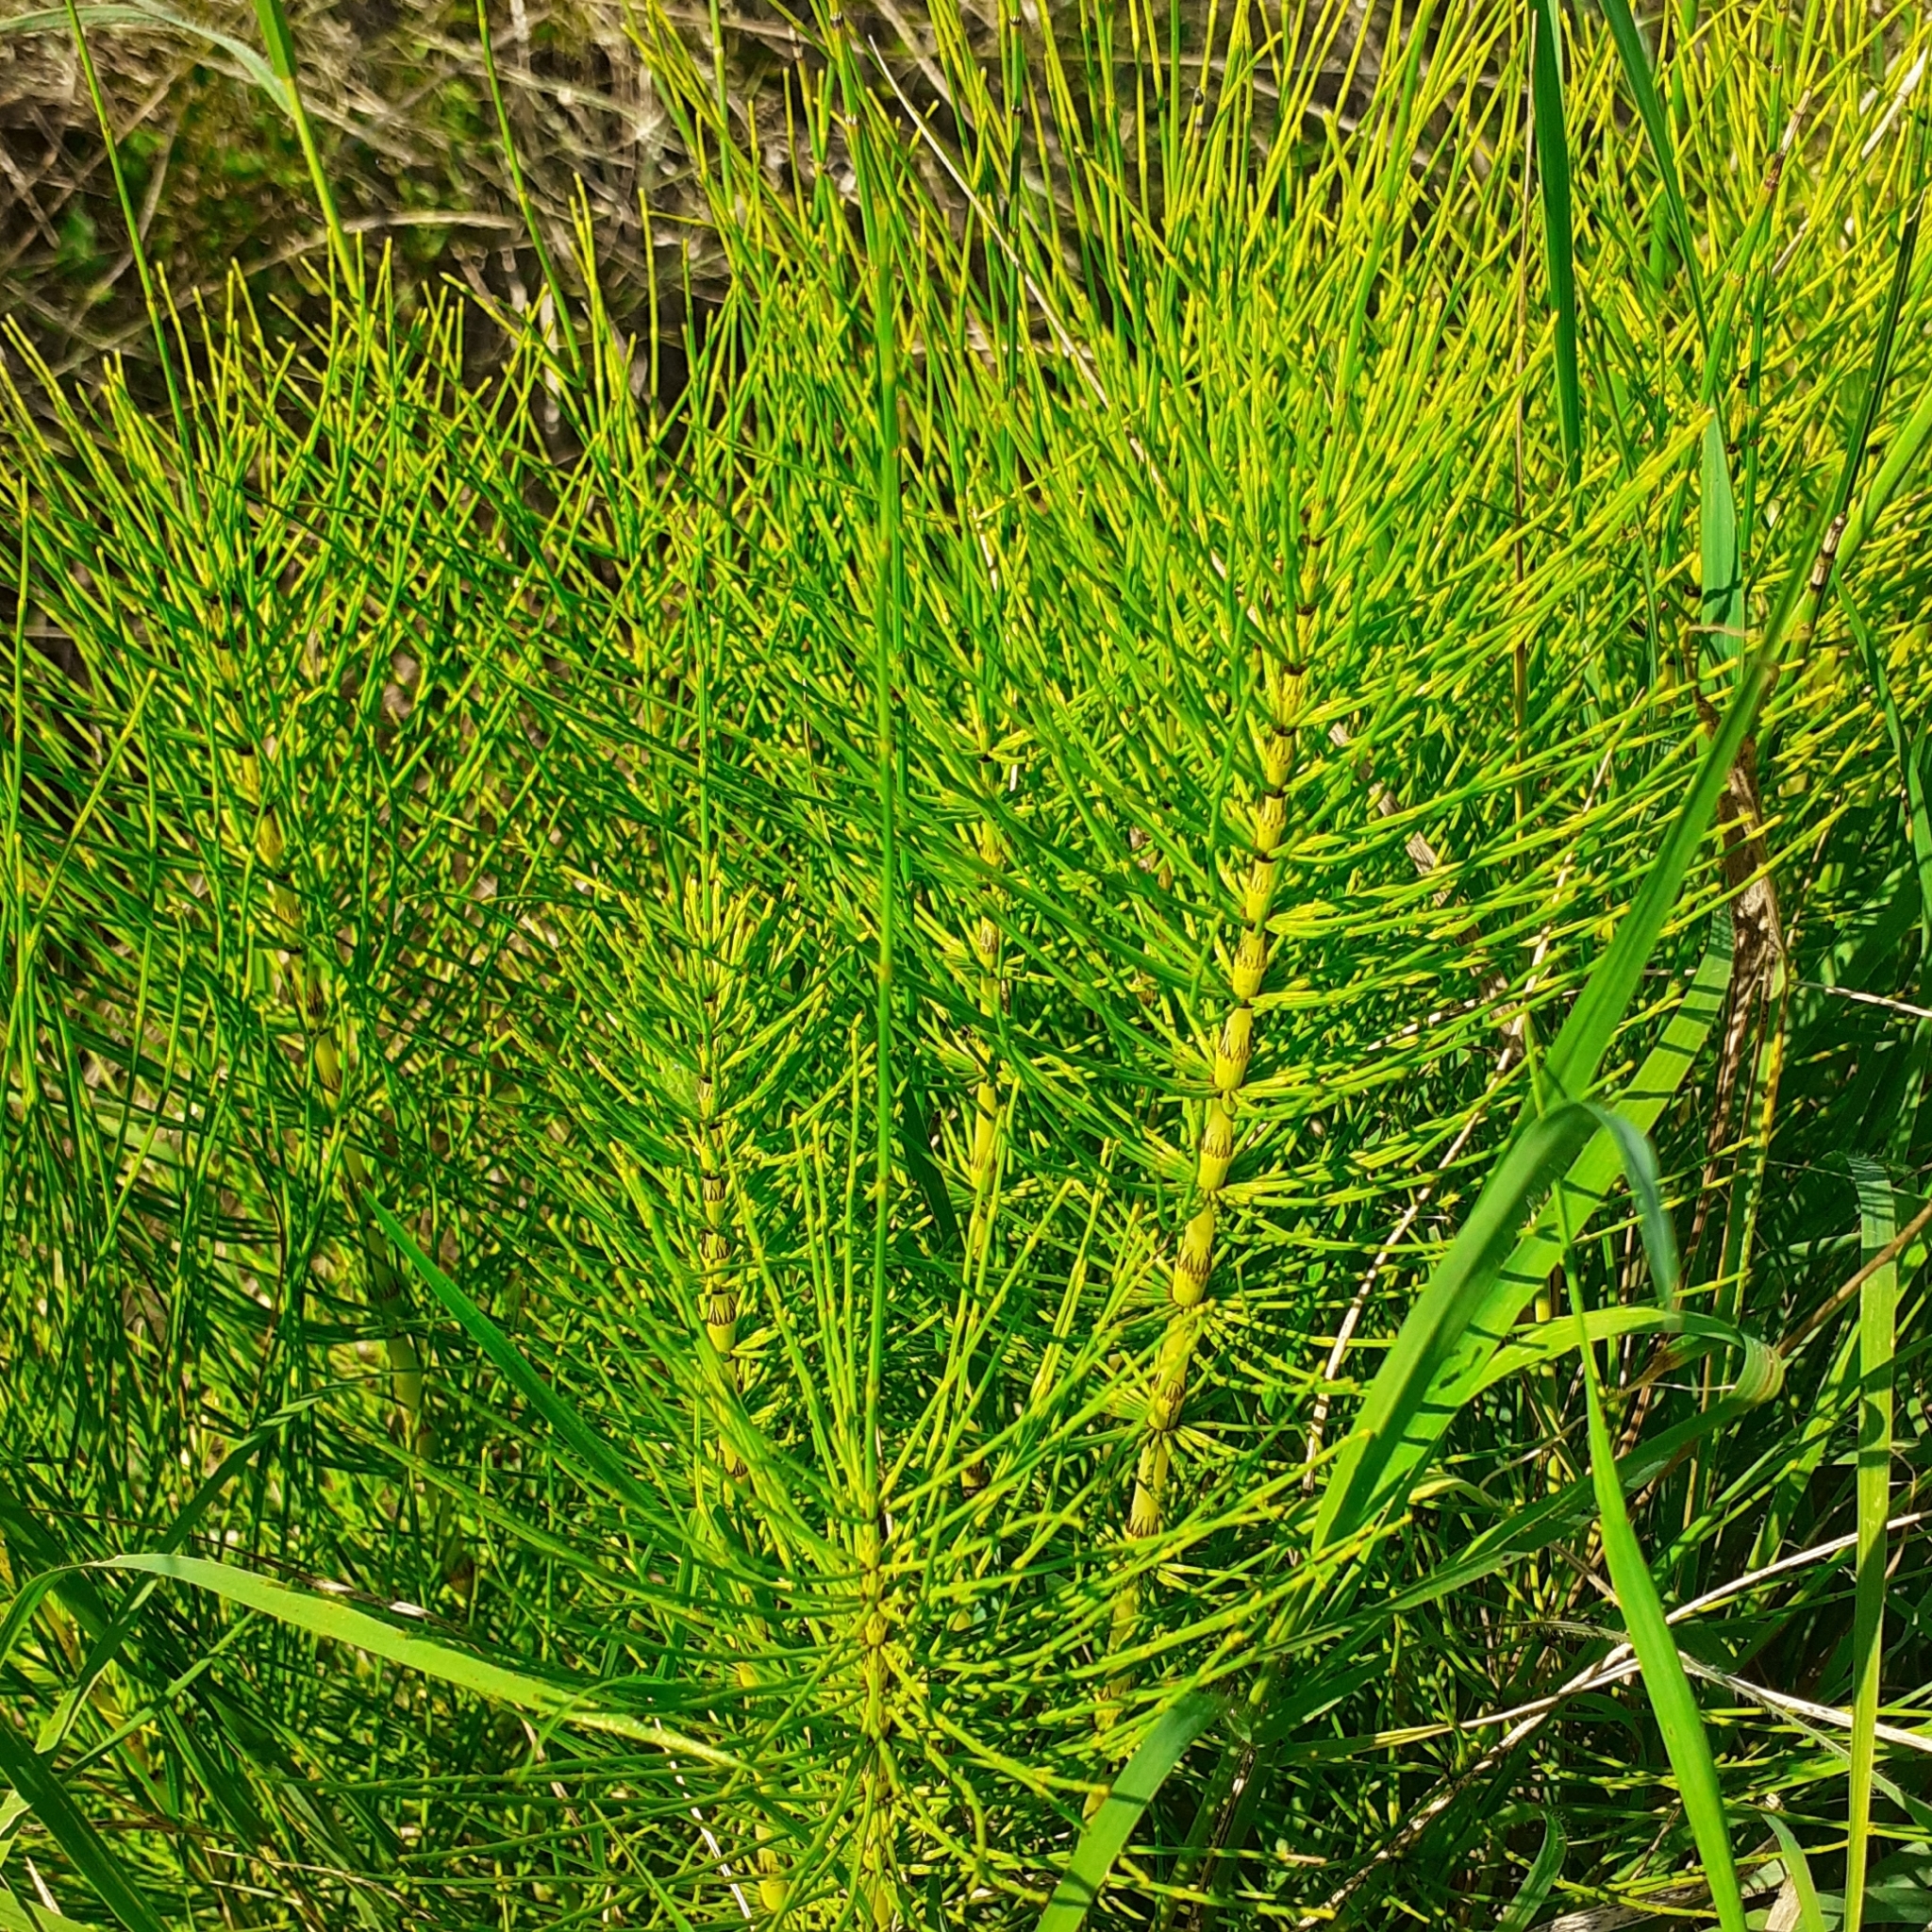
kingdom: Plantae
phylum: Tracheophyta
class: Polypodiopsida
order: Equisetales
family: Equisetaceae
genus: Equisetum
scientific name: Equisetum telmateia
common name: Great horsetail
